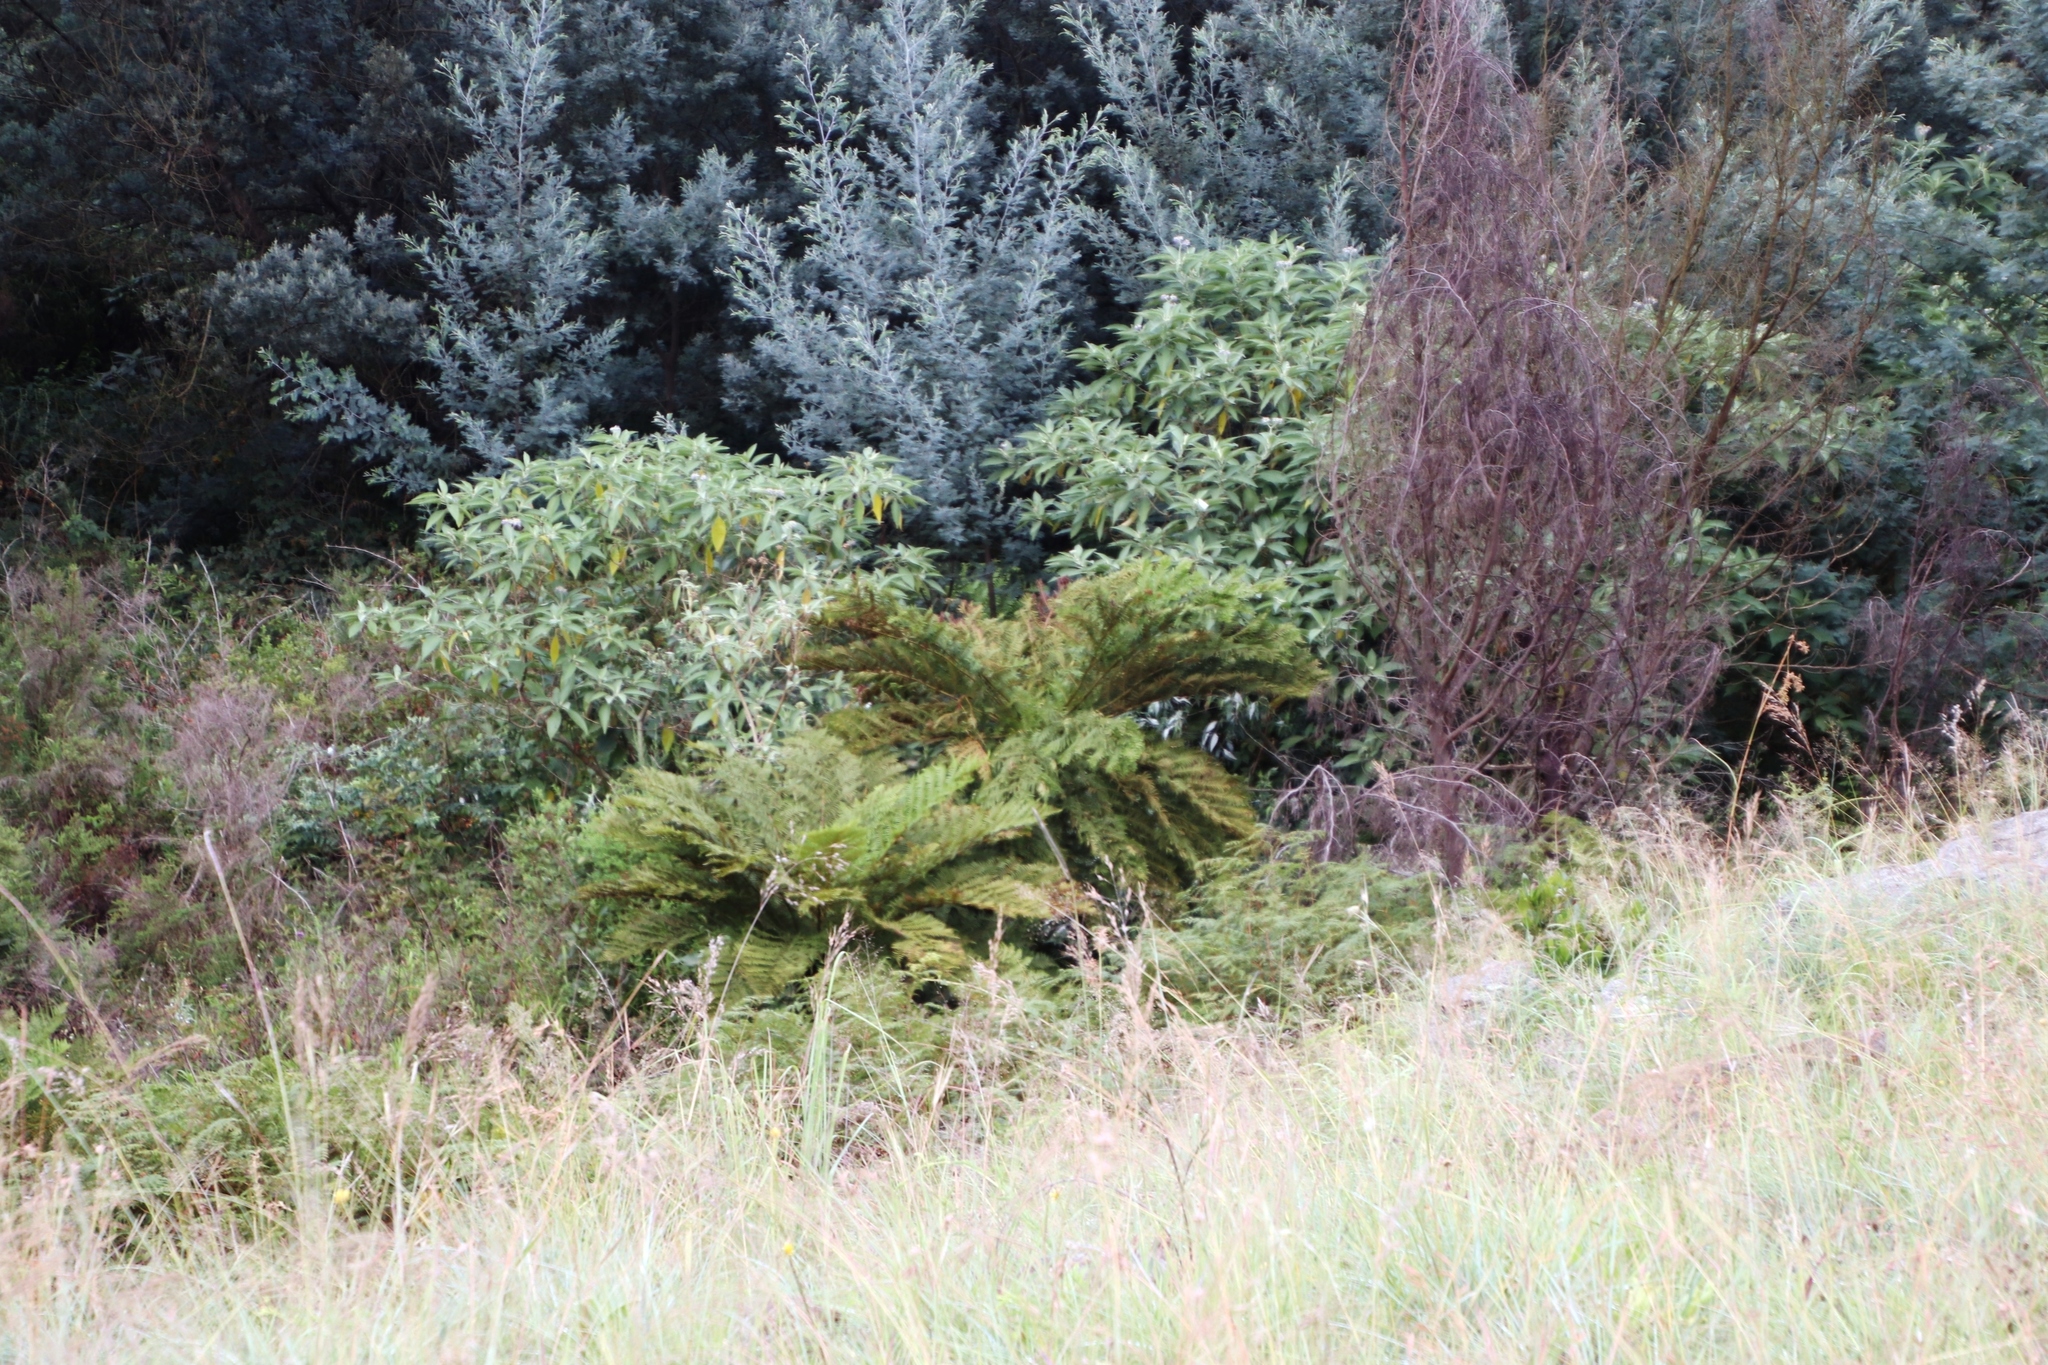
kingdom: Plantae
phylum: Tracheophyta
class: Polypodiopsida
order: Cyatheales
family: Cyatheaceae
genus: Alsophila
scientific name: Alsophila dregei
